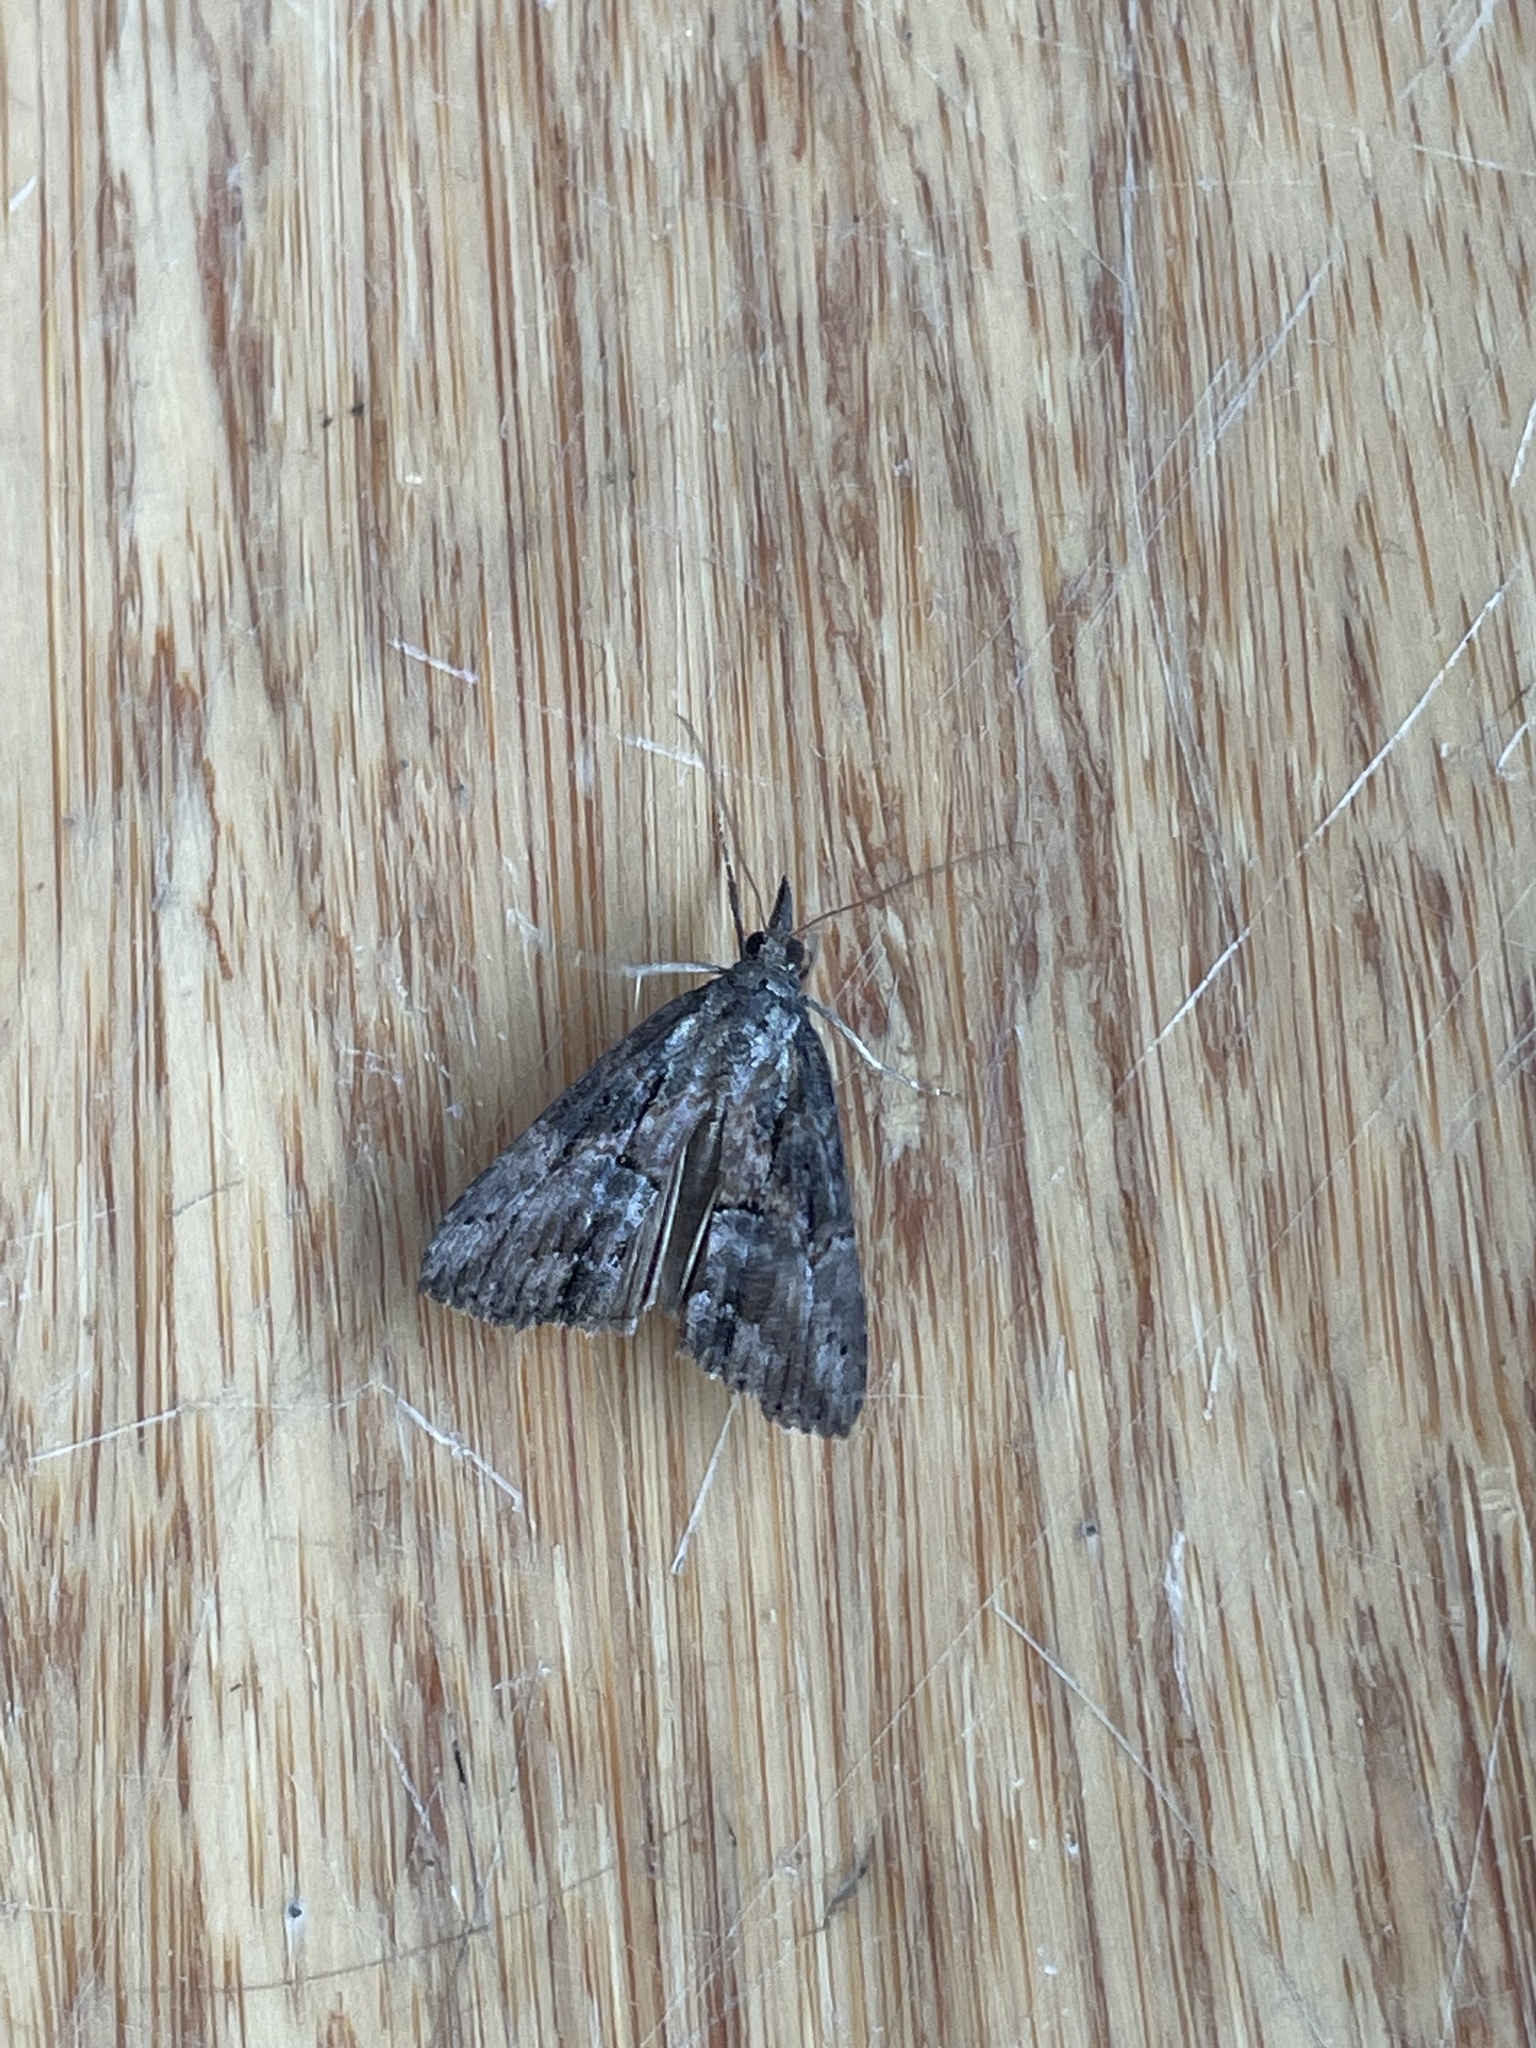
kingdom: Animalia
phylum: Arthropoda
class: Insecta
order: Lepidoptera
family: Erebidae
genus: Hypena
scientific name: Hypena scabra
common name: Green cloverworm
